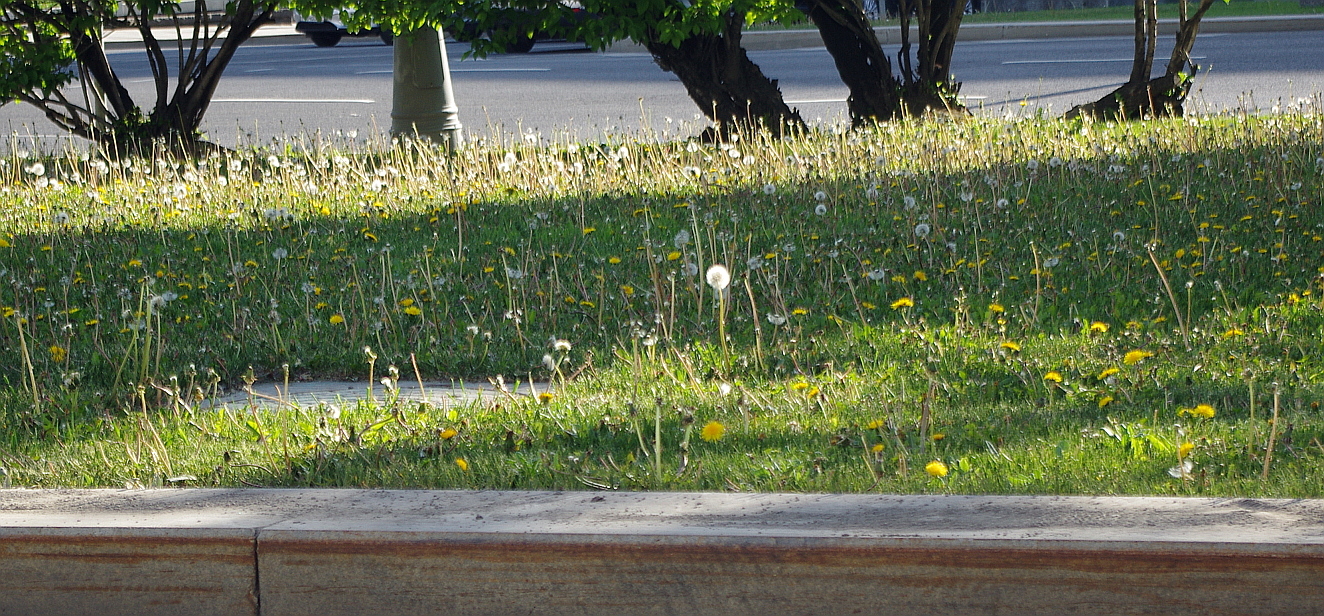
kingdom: Plantae
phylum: Tracheophyta
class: Magnoliopsida
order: Asterales
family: Asteraceae
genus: Taraxacum
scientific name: Taraxacum officinale
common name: Common dandelion
